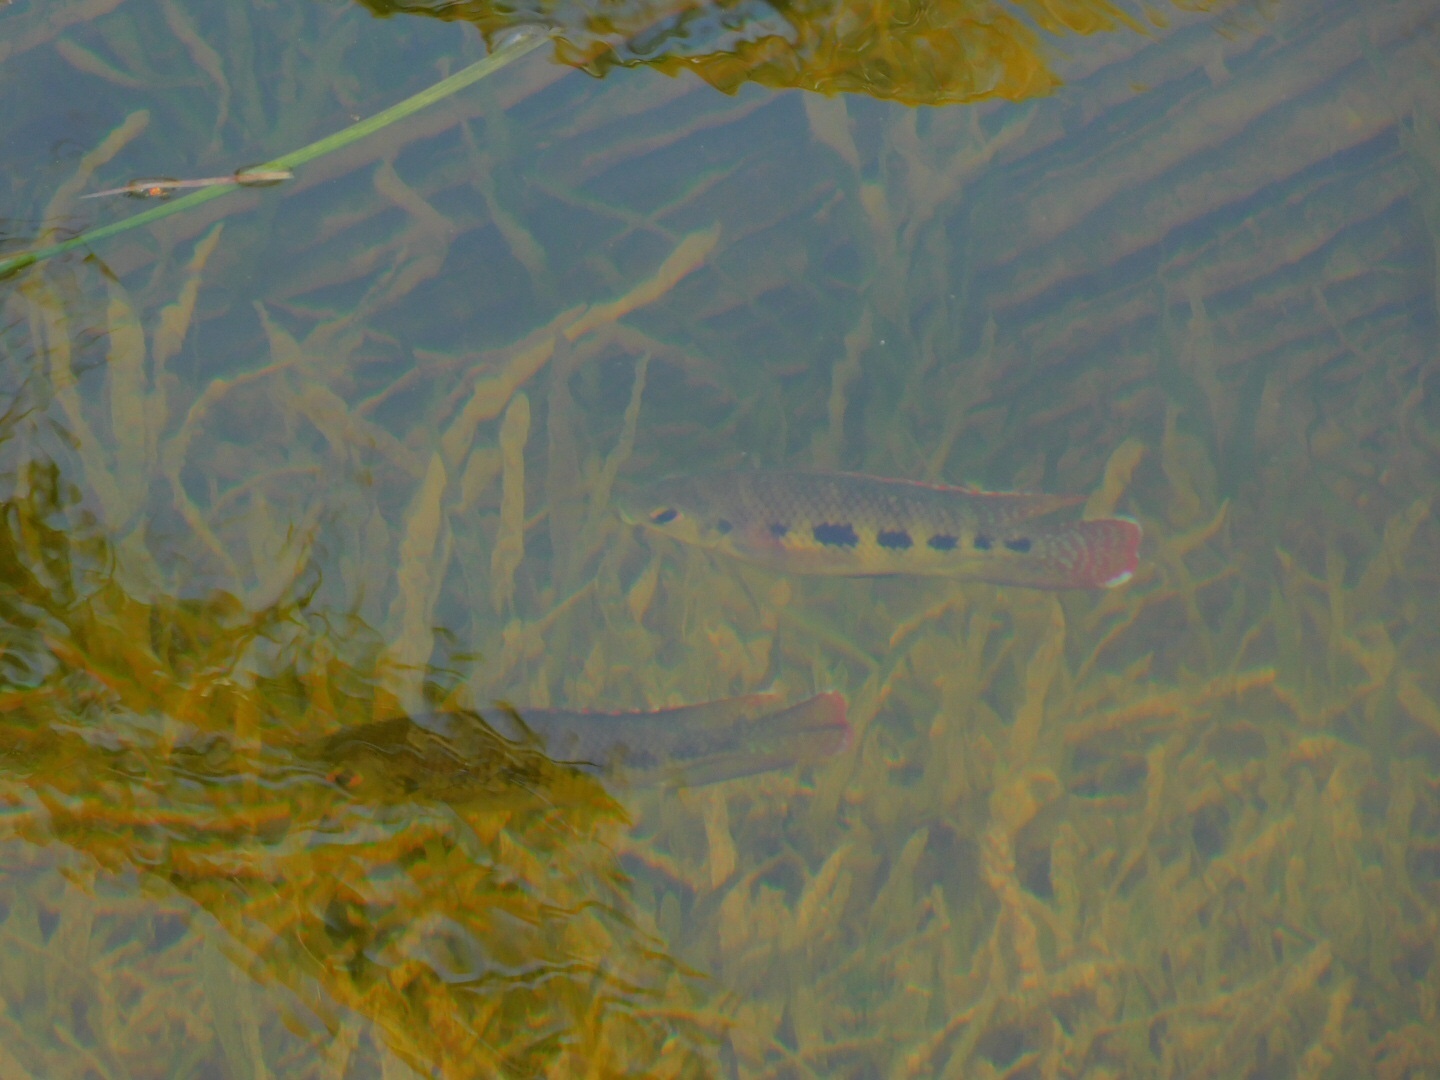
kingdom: Animalia
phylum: Chordata
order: Perciformes
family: Cichlidae
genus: Pelmatolapia
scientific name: Pelmatolapia mariae
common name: Spotted tilapia
